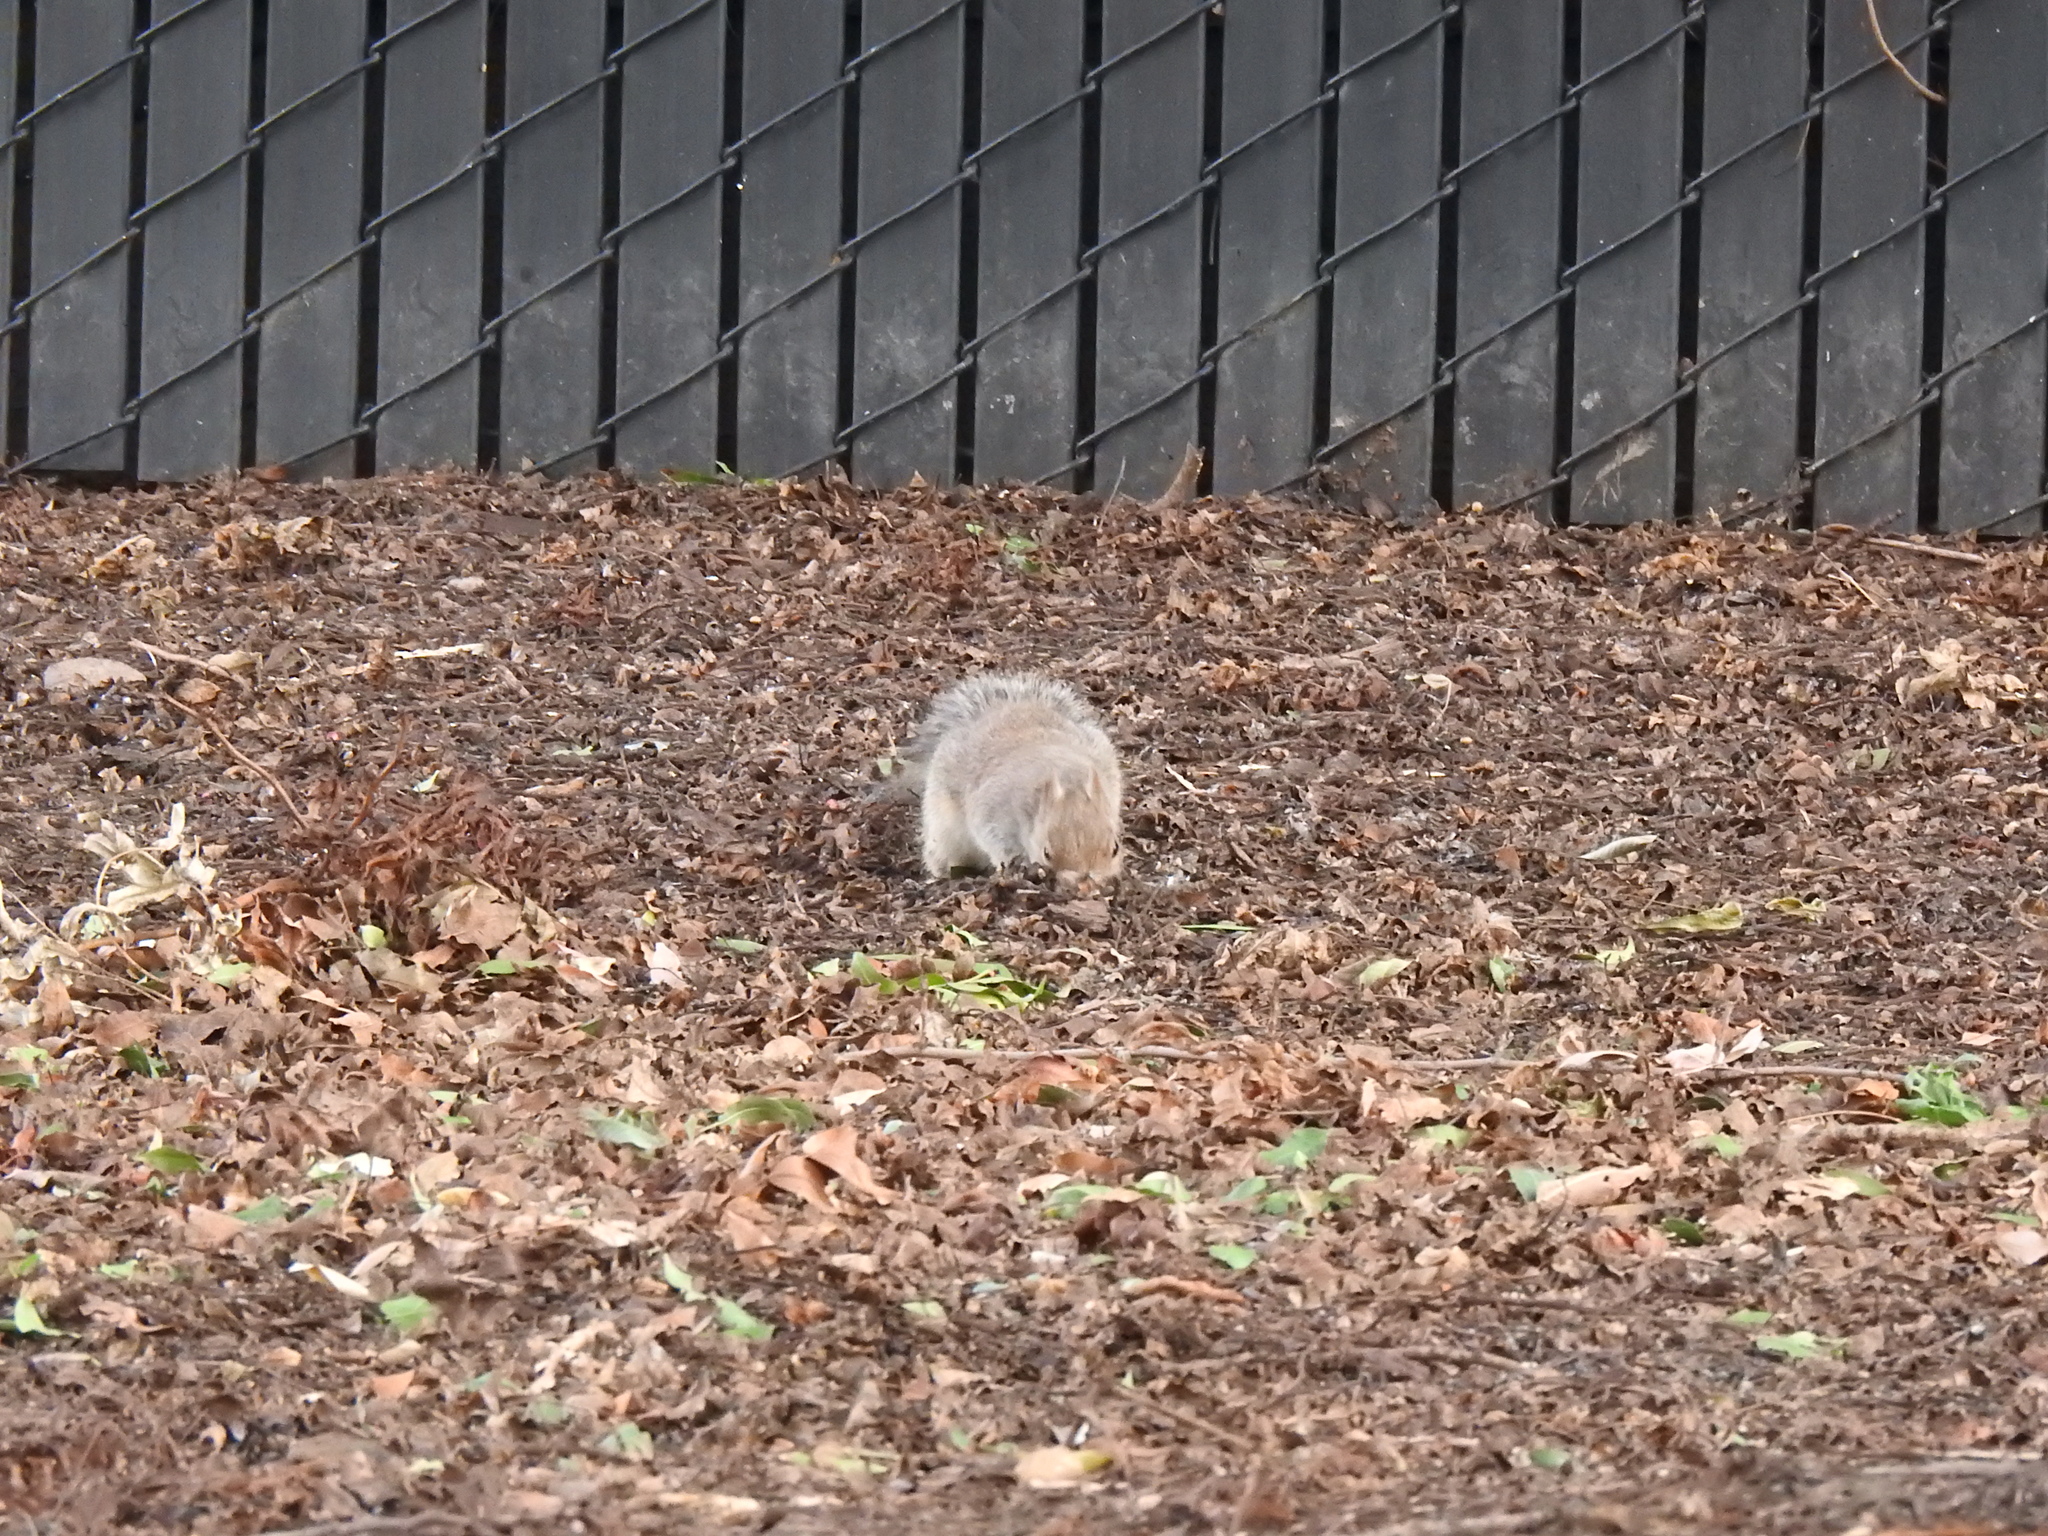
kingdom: Animalia
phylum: Chordata
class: Mammalia
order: Rodentia
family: Sciuridae
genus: Sciurus
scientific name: Sciurus carolinensis
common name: Eastern gray squirrel
